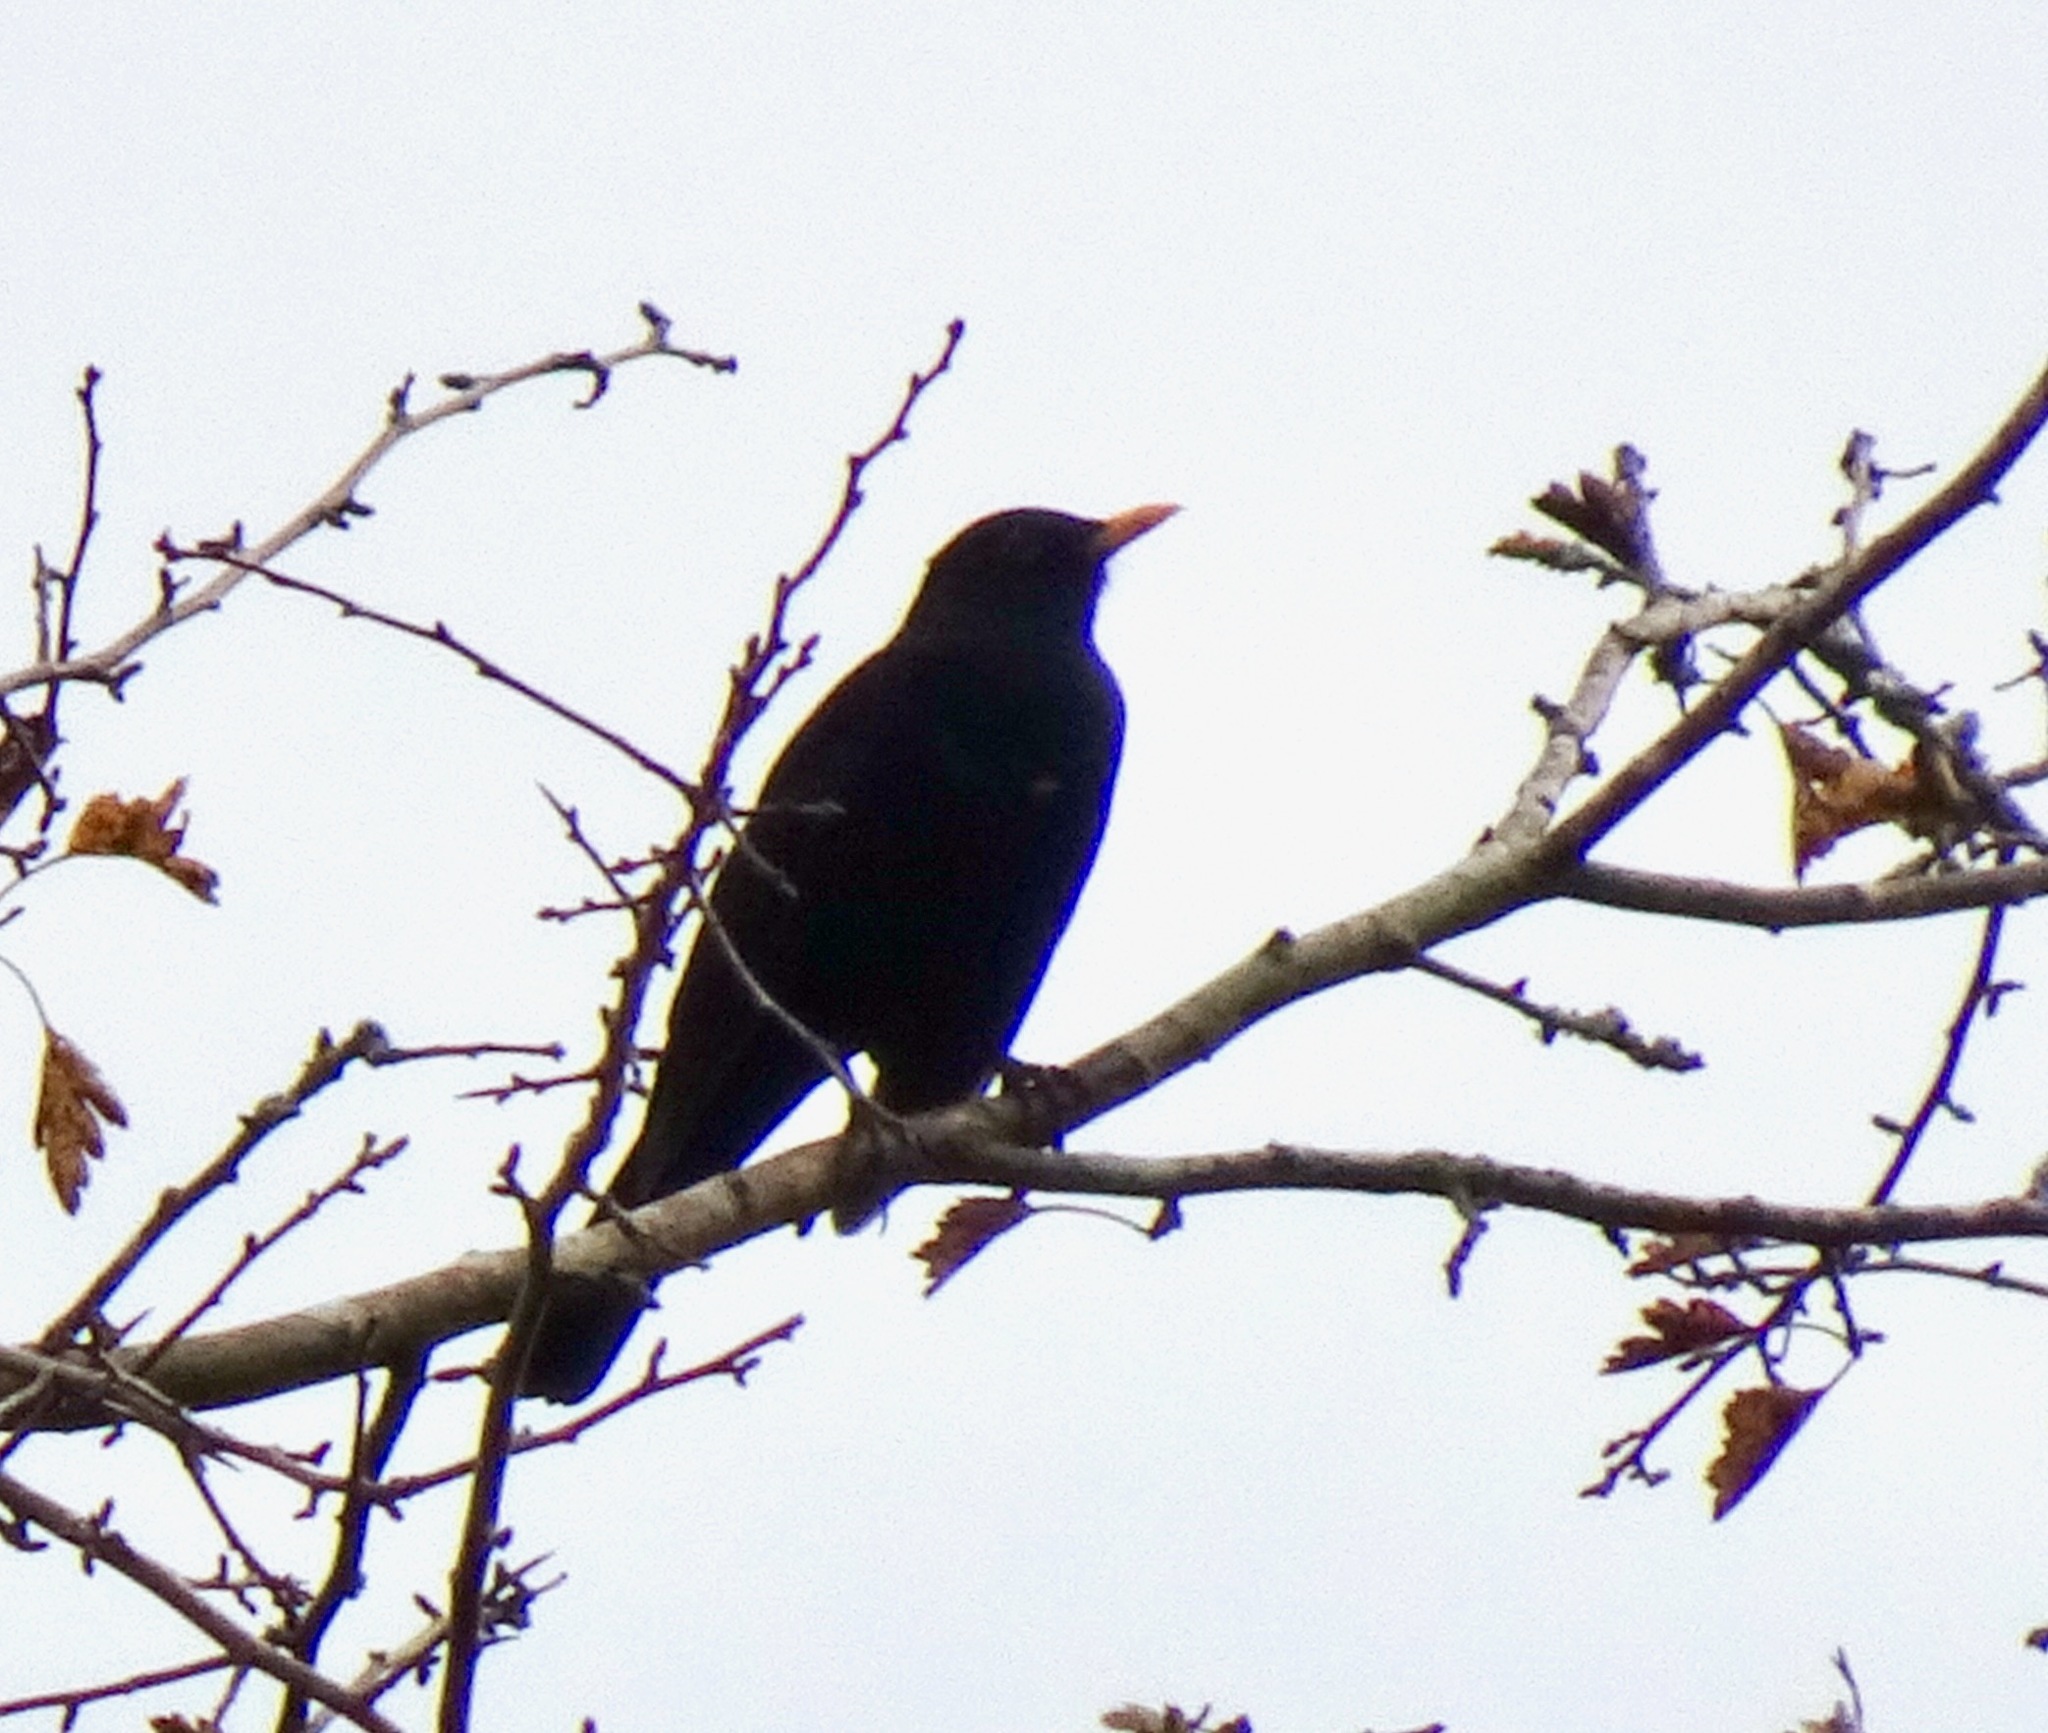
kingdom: Animalia
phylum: Chordata
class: Aves
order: Passeriformes
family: Turdidae
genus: Turdus
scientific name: Turdus merula
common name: Common blackbird
